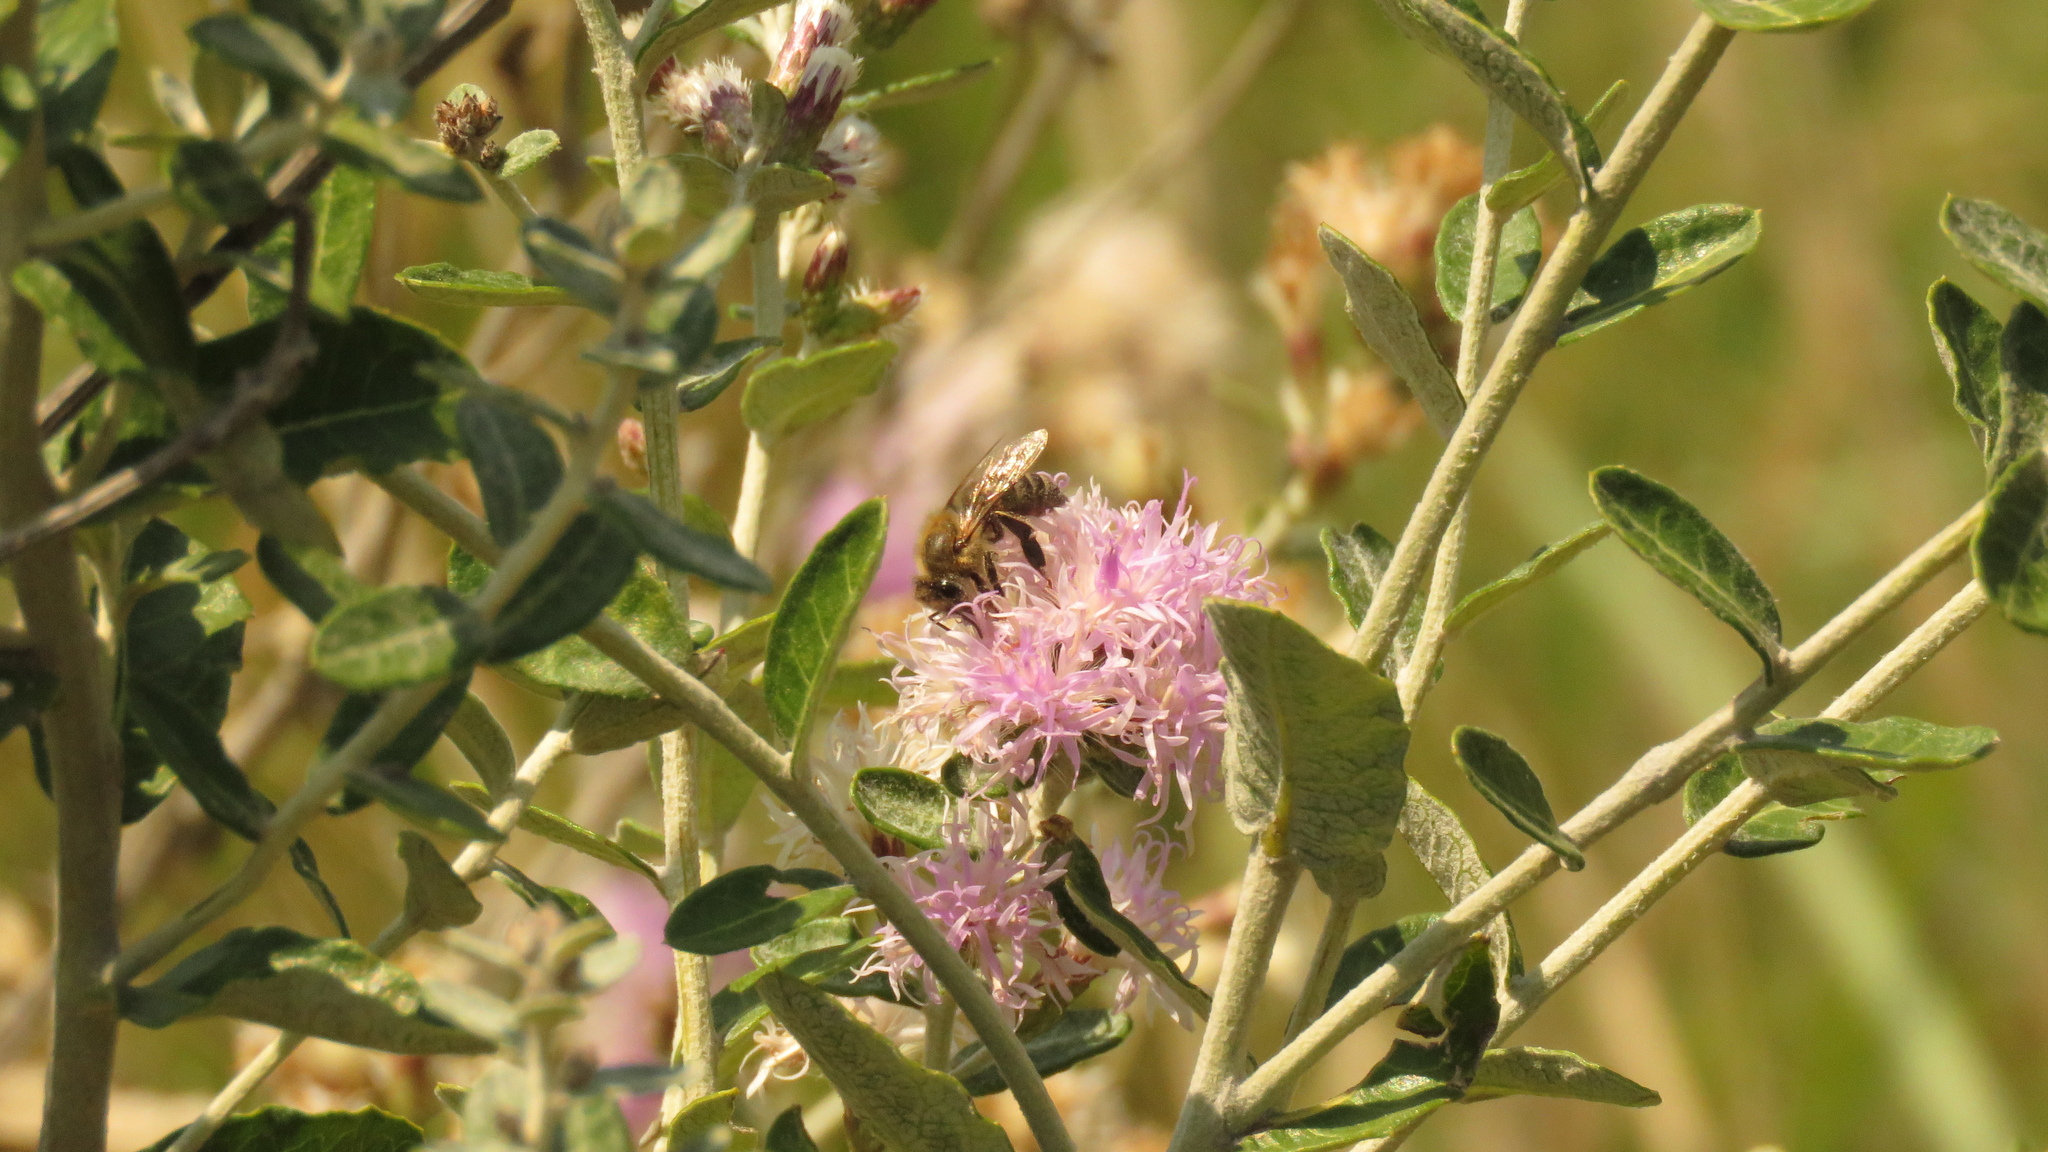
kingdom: Animalia
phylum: Arthropoda
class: Insecta
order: Hymenoptera
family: Apidae
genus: Apis
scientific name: Apis mellifera
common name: Honey bee
